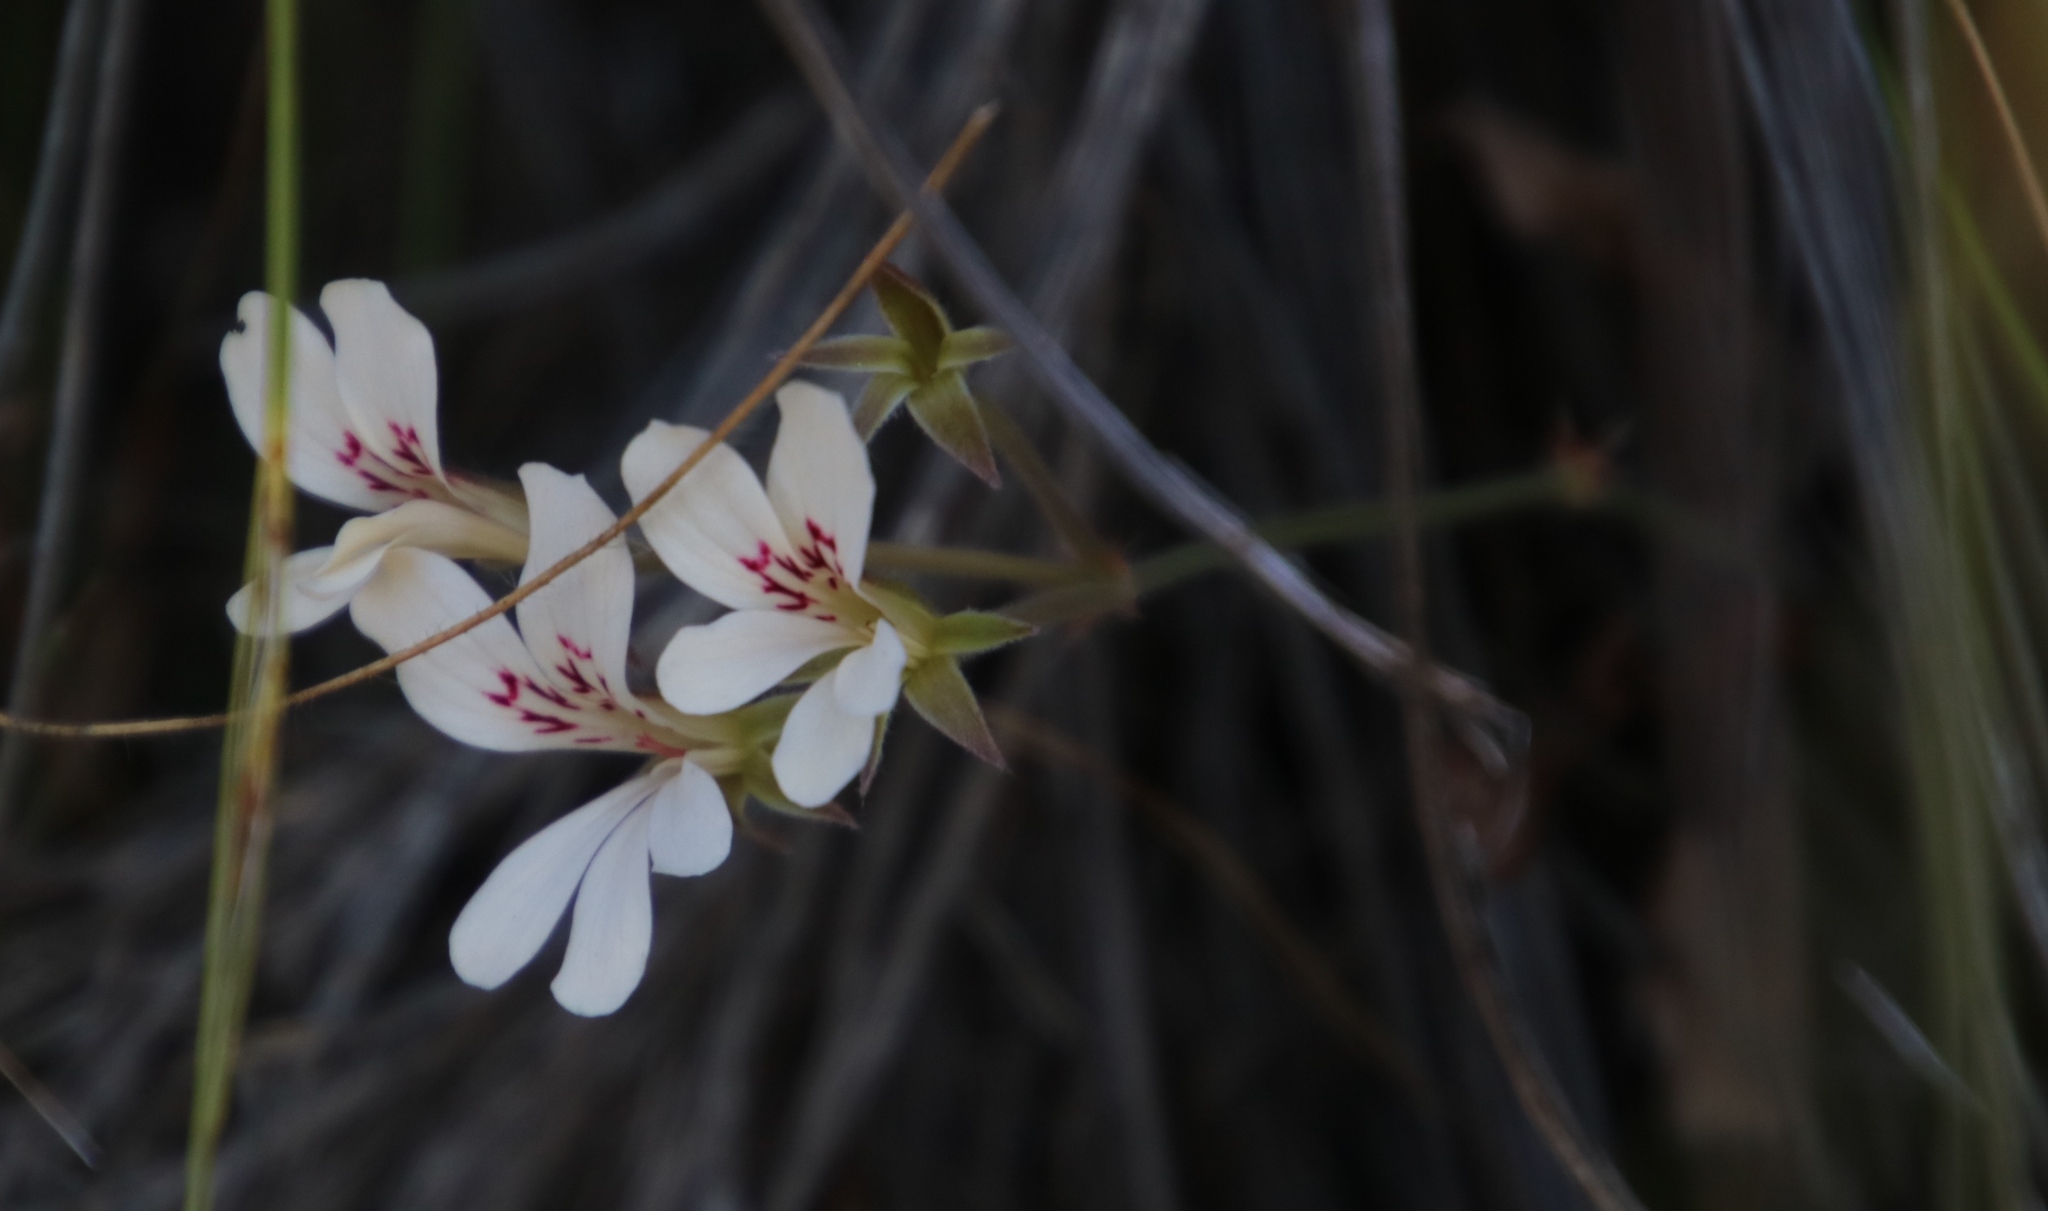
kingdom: Plantae
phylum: Tracheophyta
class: Magnoliopsida
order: Geraniales
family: Geraniaceae
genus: Pelargonium
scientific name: Pelargonium pinnatum
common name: Pinnated pelargonium
